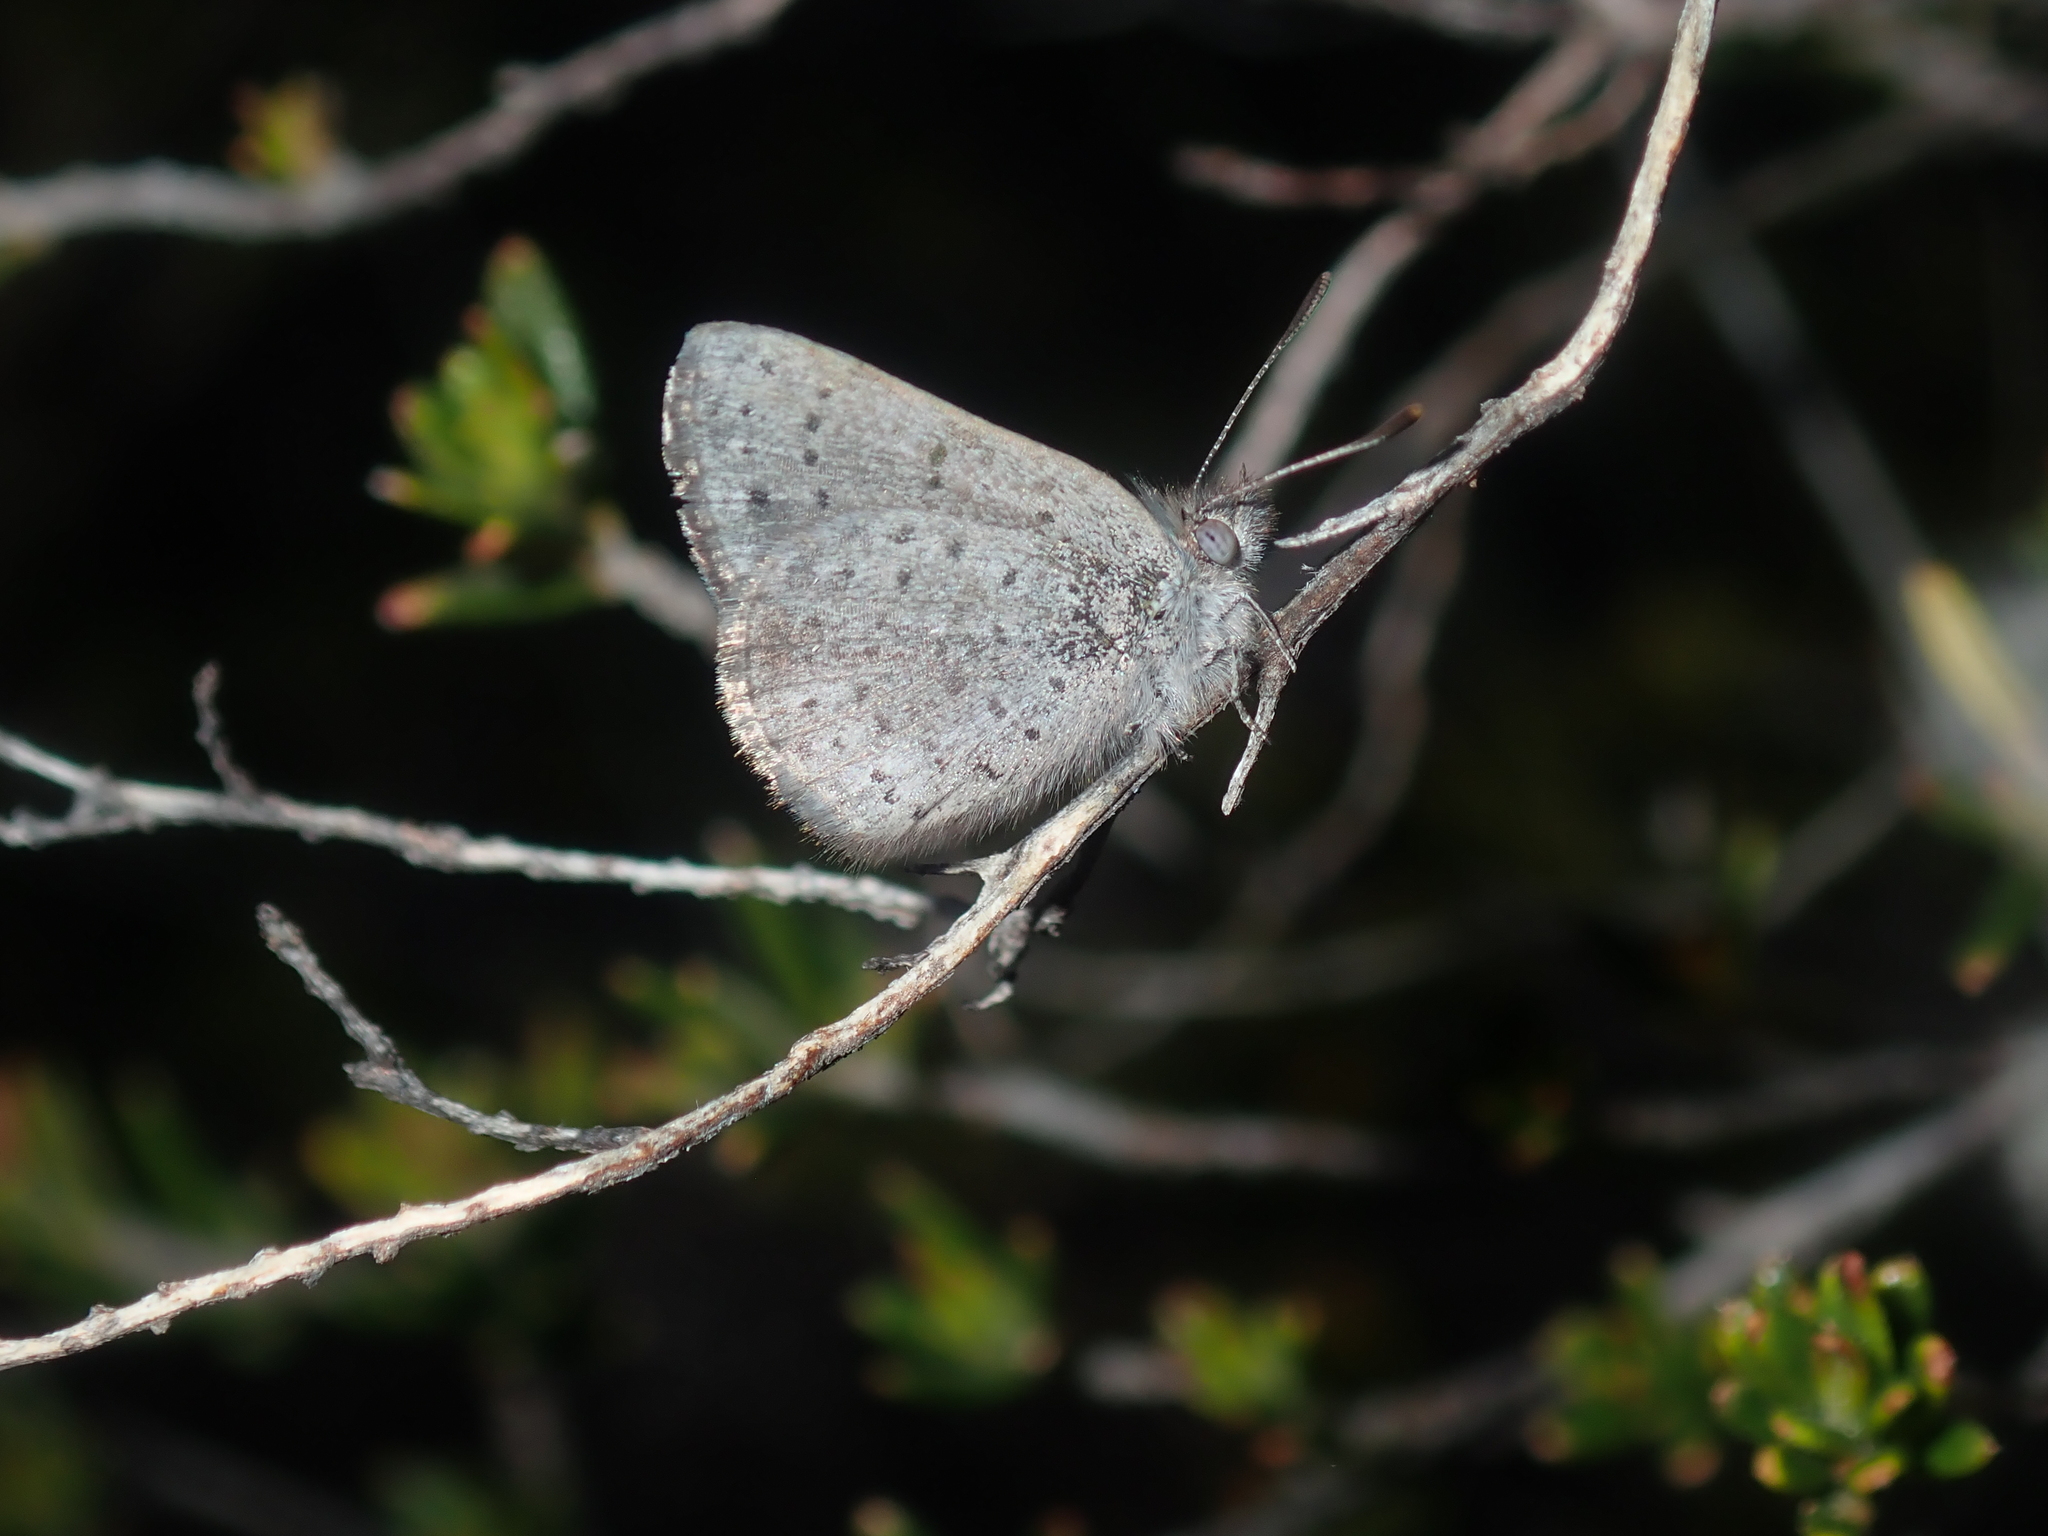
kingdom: Animalia
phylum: Arthropoda
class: Insecta
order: Lepidoptera
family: Lycaenidae
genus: Candalides
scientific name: Candalides
